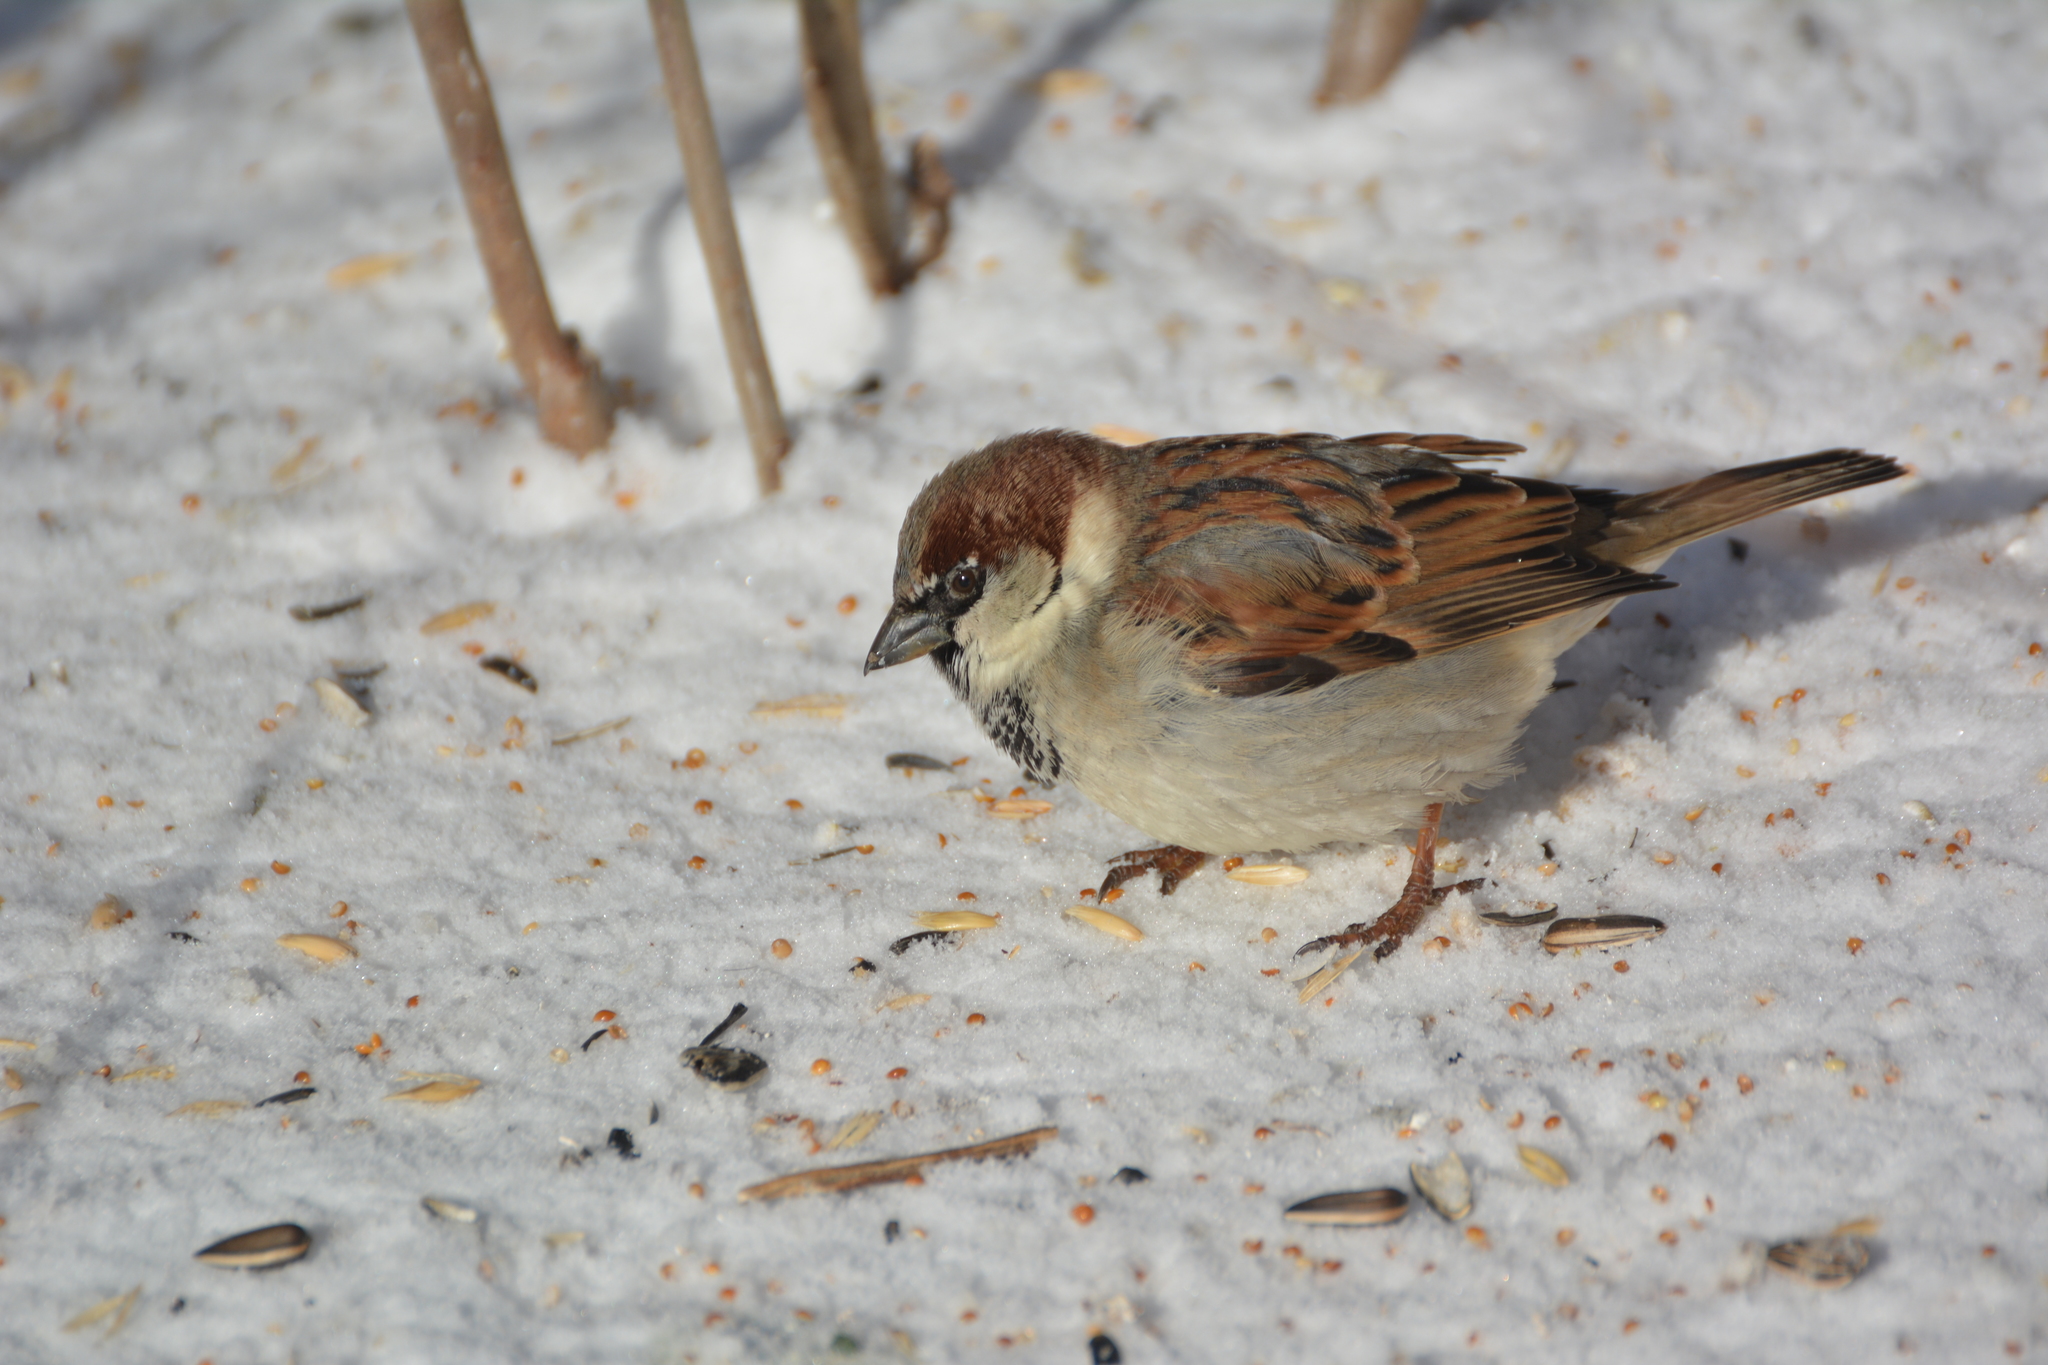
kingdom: Animalia
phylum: Chordata
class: Aves
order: Passeriformes
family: Passeridae
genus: Passer
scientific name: Passer domesticus
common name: House sparrow
